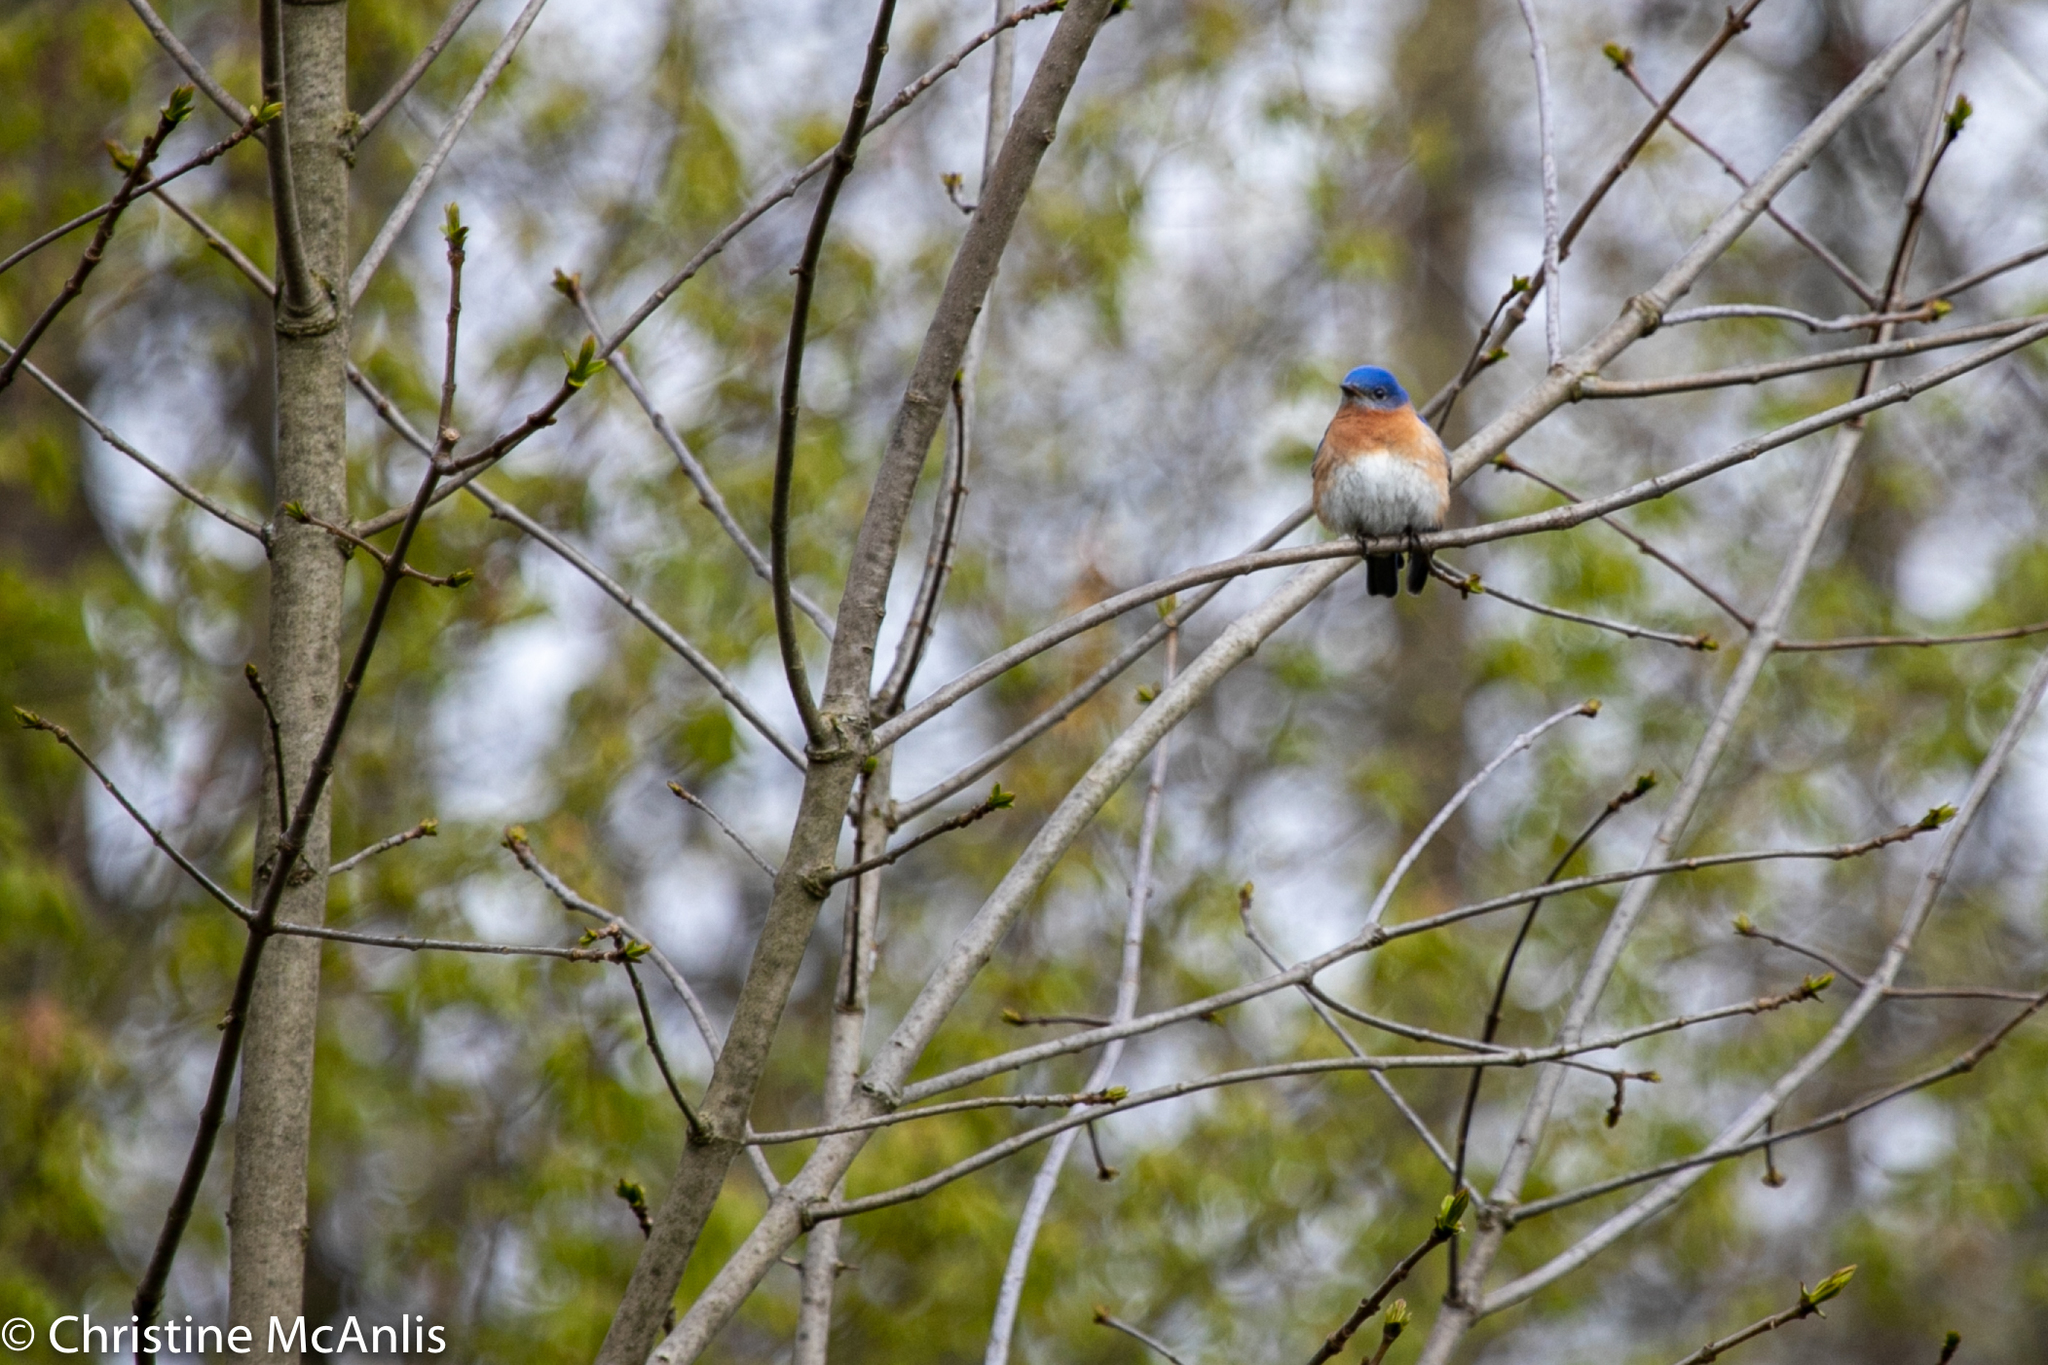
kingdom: Animalia
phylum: Chordata
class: Aves
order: Passeriformes
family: Turdidae
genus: Sialia
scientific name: Sialia sialis
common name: Eastern bluebird
